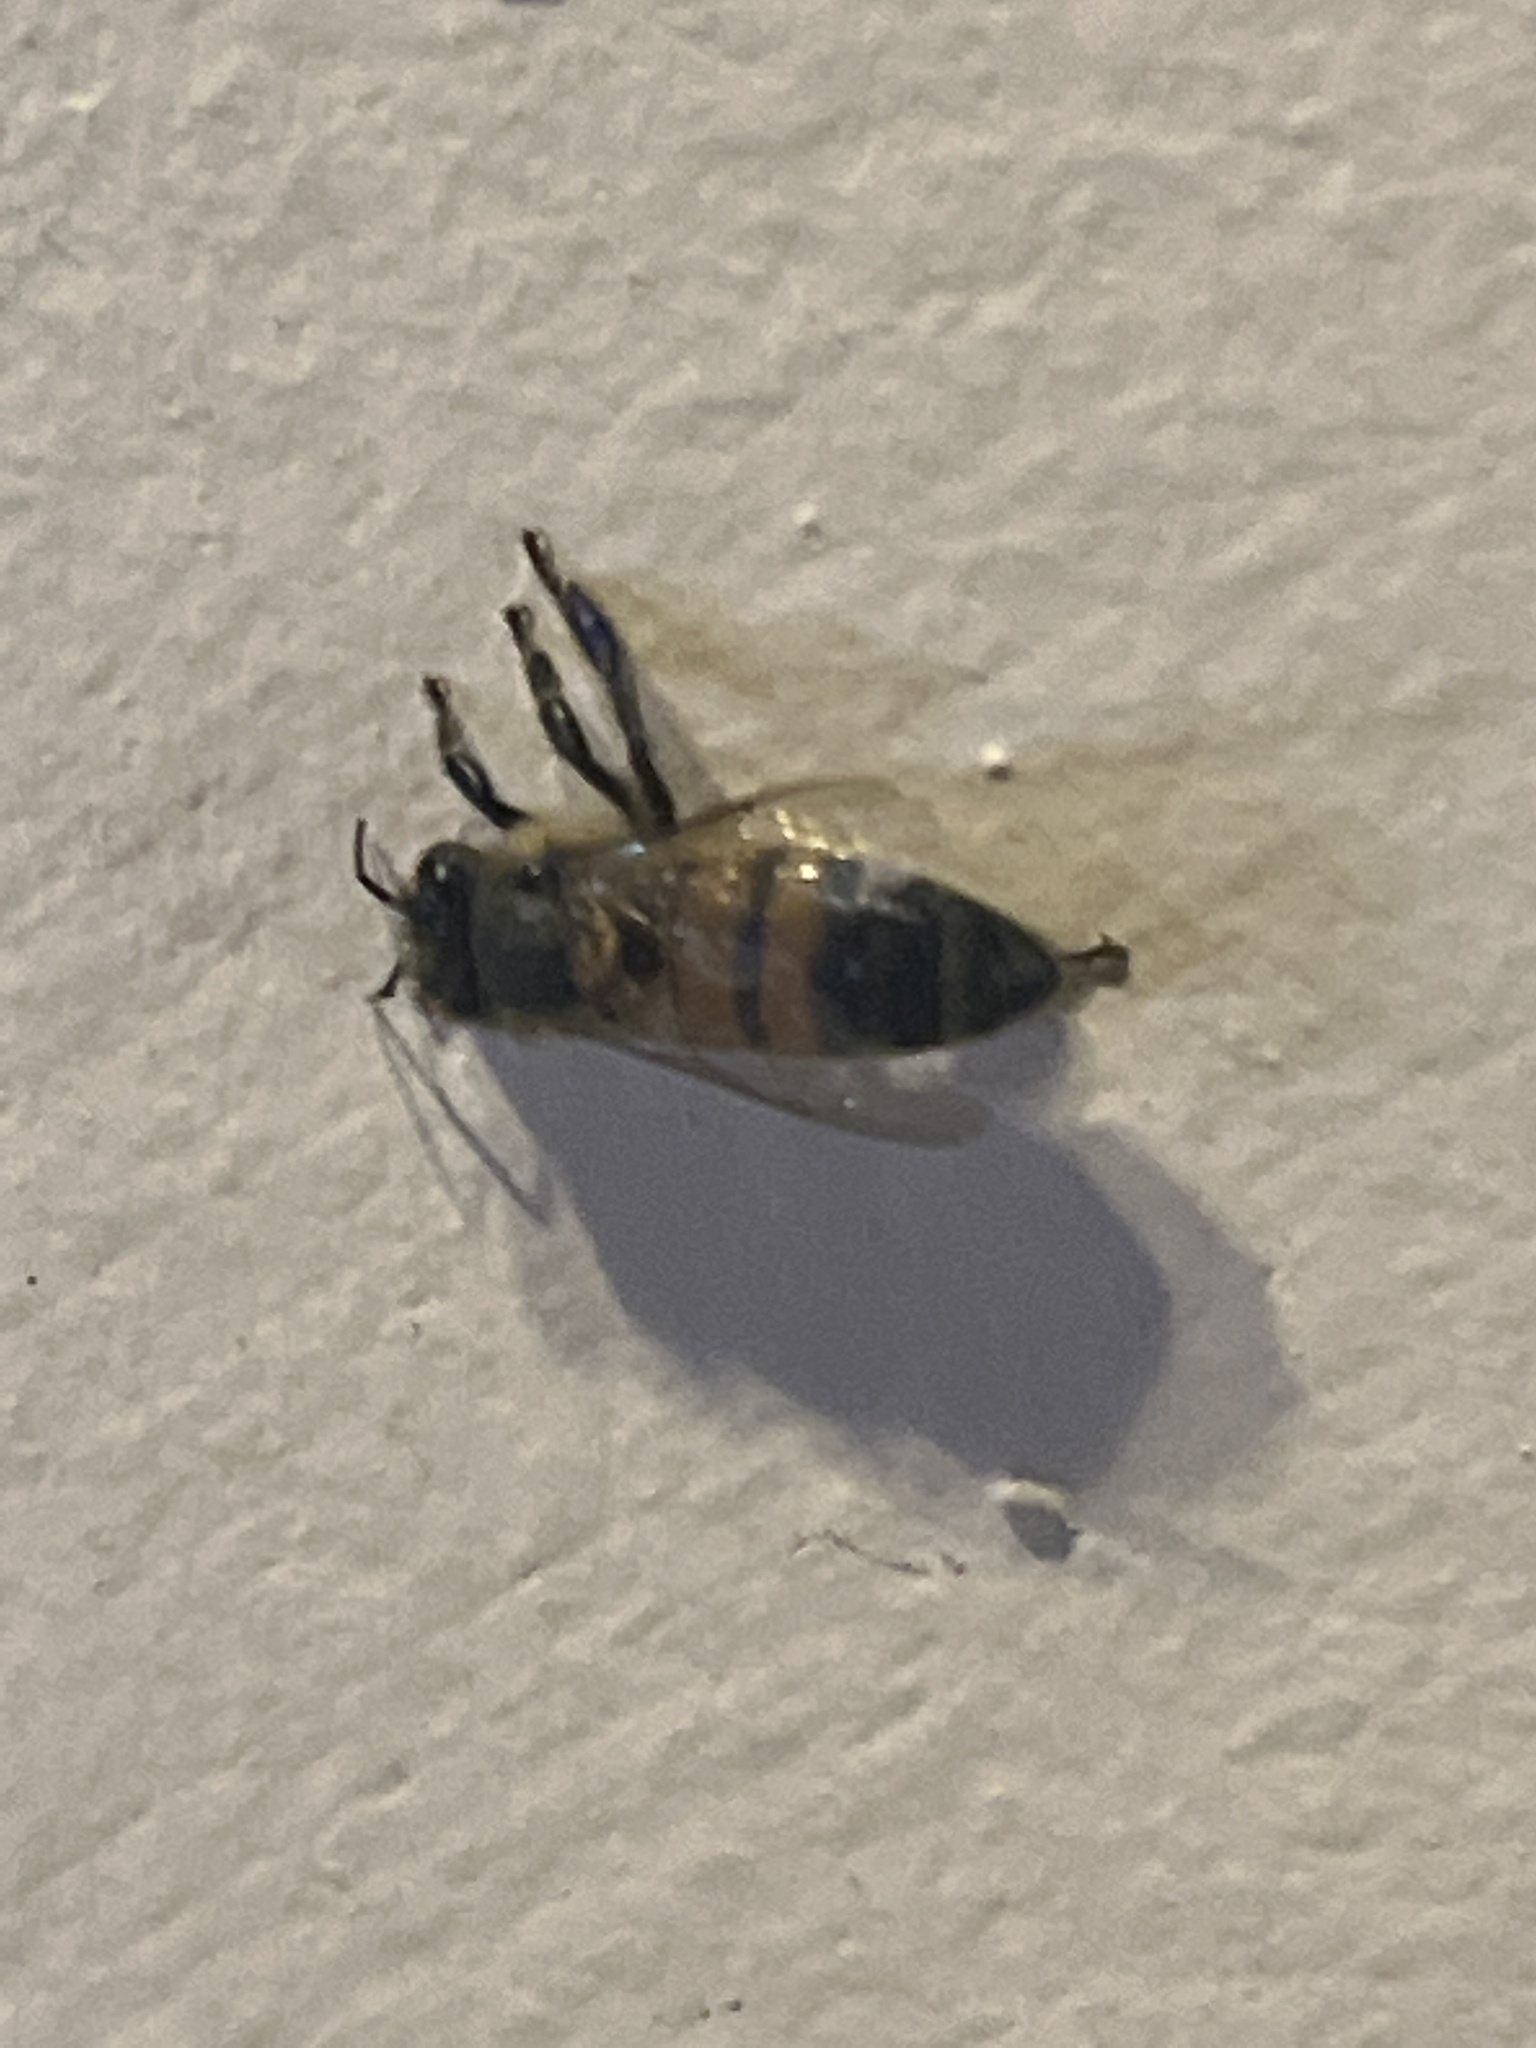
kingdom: Animalia
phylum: Arthropoda
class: Insecta
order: Hymenoptera
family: Apidae
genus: Apis
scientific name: Apis mellifera
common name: Honey bee
